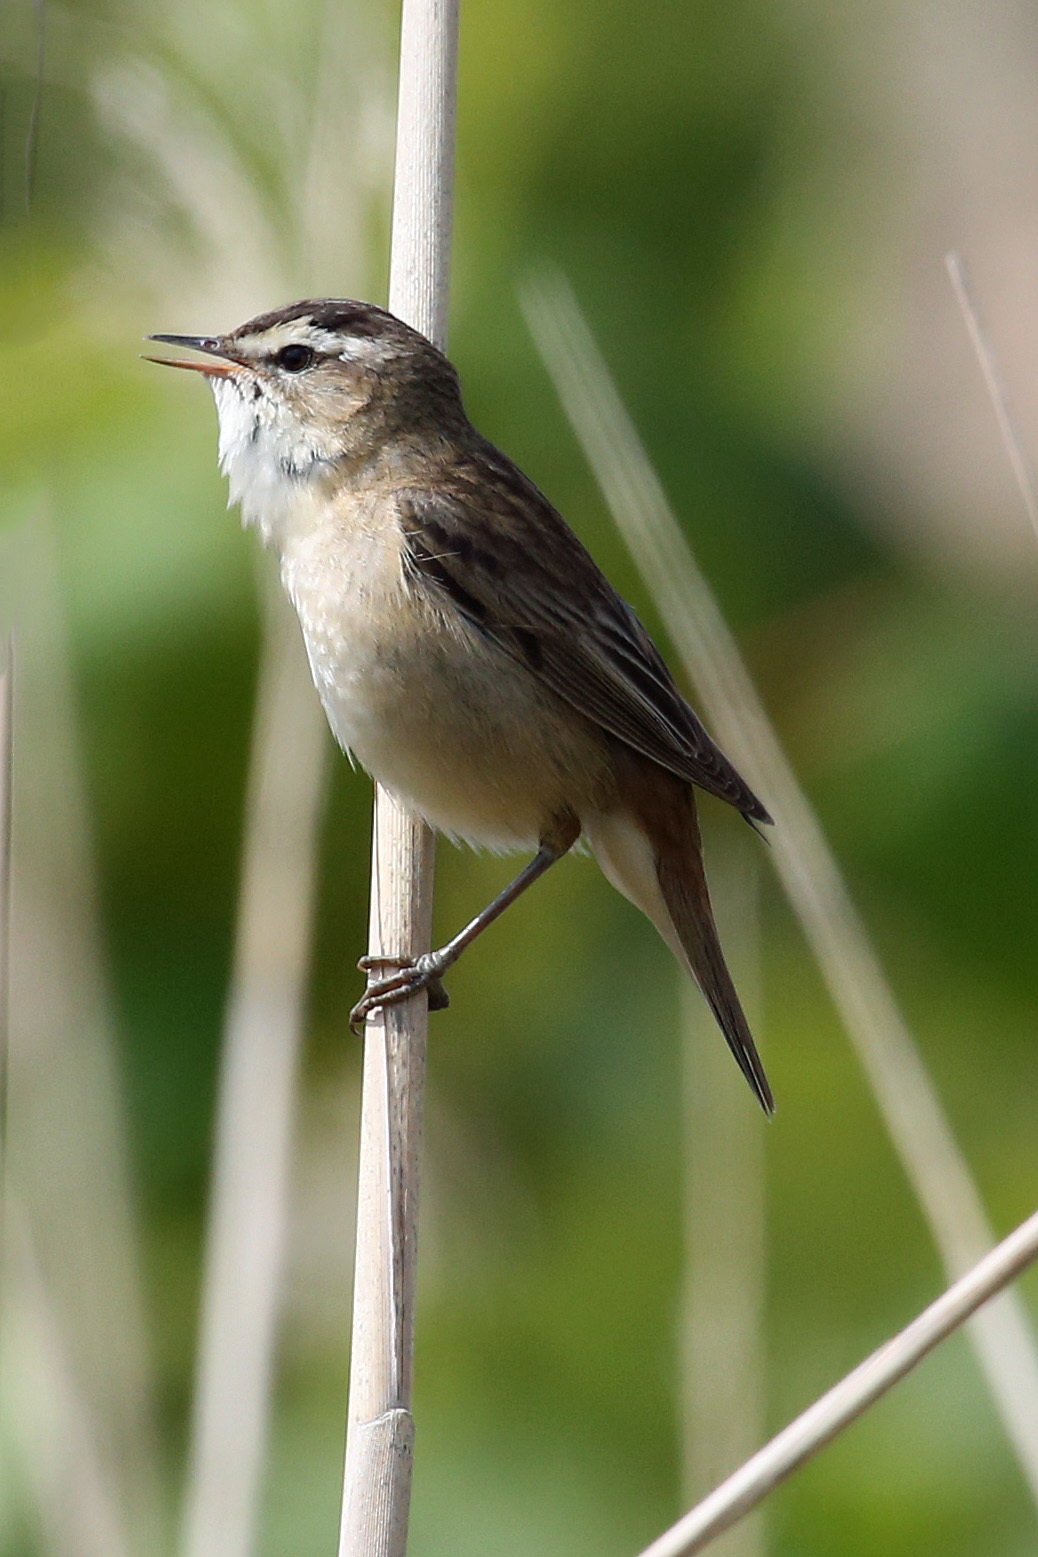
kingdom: Animalia
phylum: Chordata
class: Aves
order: Passeriformes
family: Acrocephalidae
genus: Acrocephalus
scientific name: Acrocephalus schoenobaenus
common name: Sedge warbler
